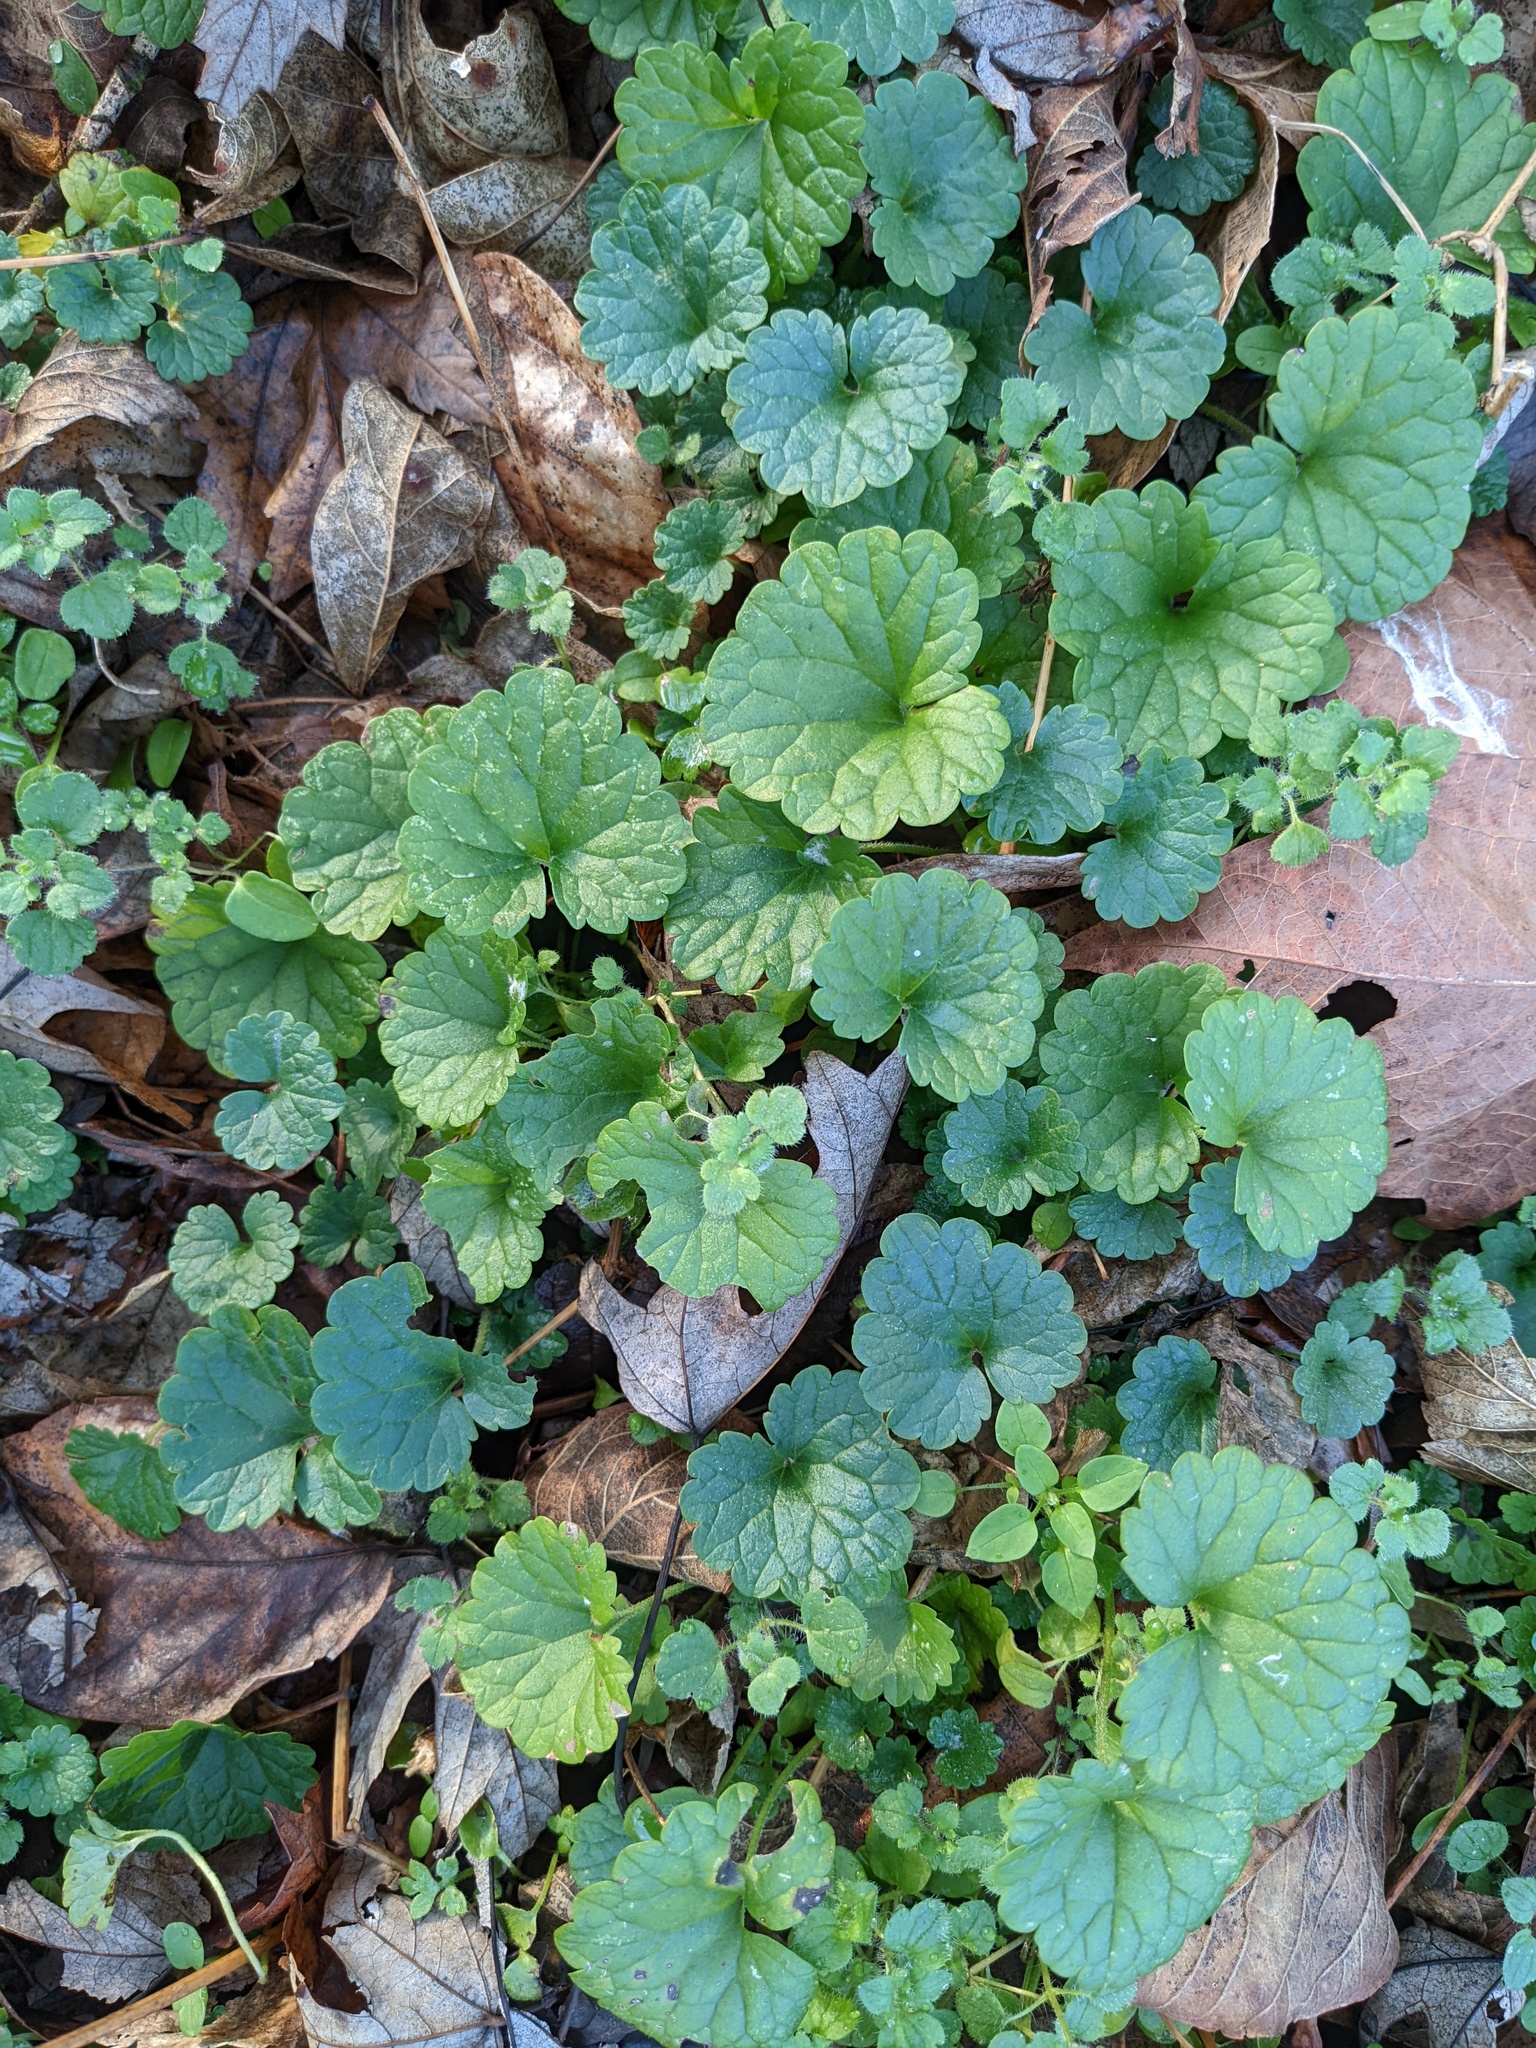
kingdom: Plantae
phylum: Tracheophyta
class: Magnoliopsida
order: Lamiales
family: Lamiaceae
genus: Glechoma
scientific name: Glechoma hederacea
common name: Ground ivy
